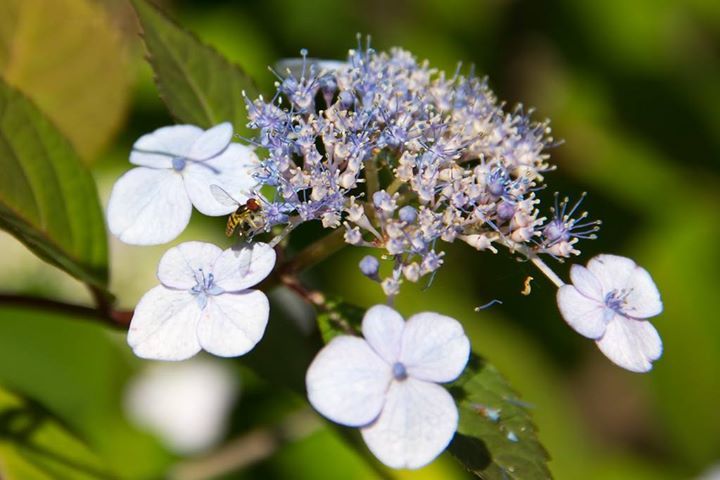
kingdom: Animalia
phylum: Arthropoda
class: Insecta
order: Diptera
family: Syrphidae
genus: Toxomerus
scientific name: Toxomerus geminatus
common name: Eastern calligrapher
